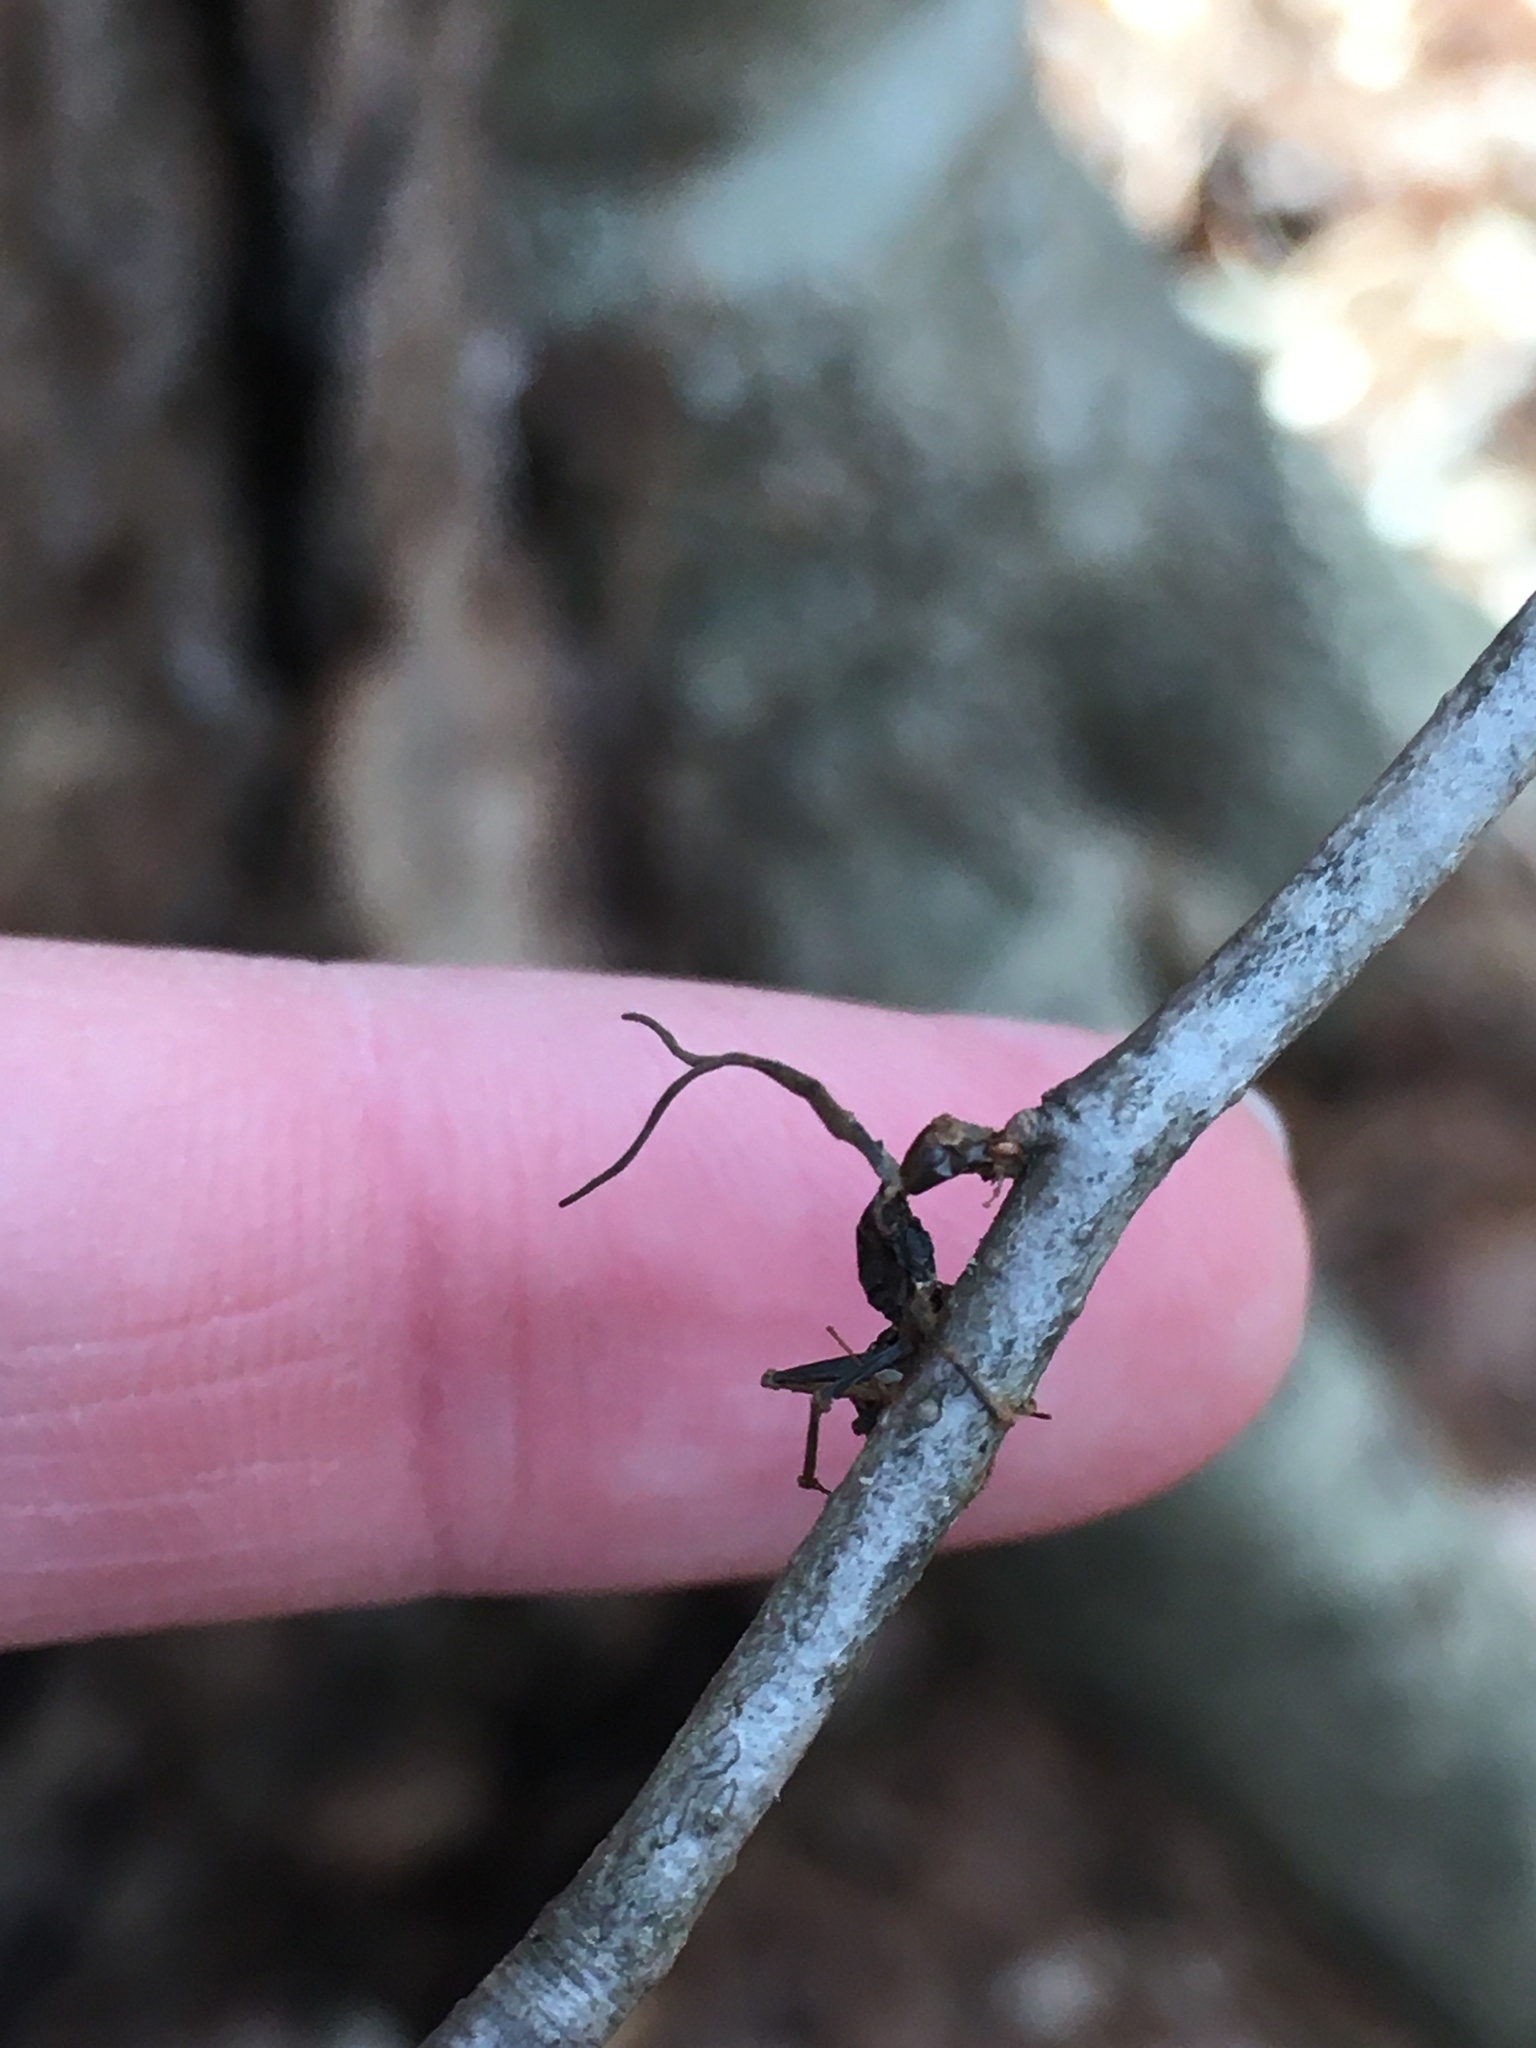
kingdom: Fungi
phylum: Ascomycota
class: Sordariomycetes
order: Hypocreales
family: Ophiocordycipitaceae
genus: Ophiocordyceps
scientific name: Ophiocordyceps kimflemingiae
